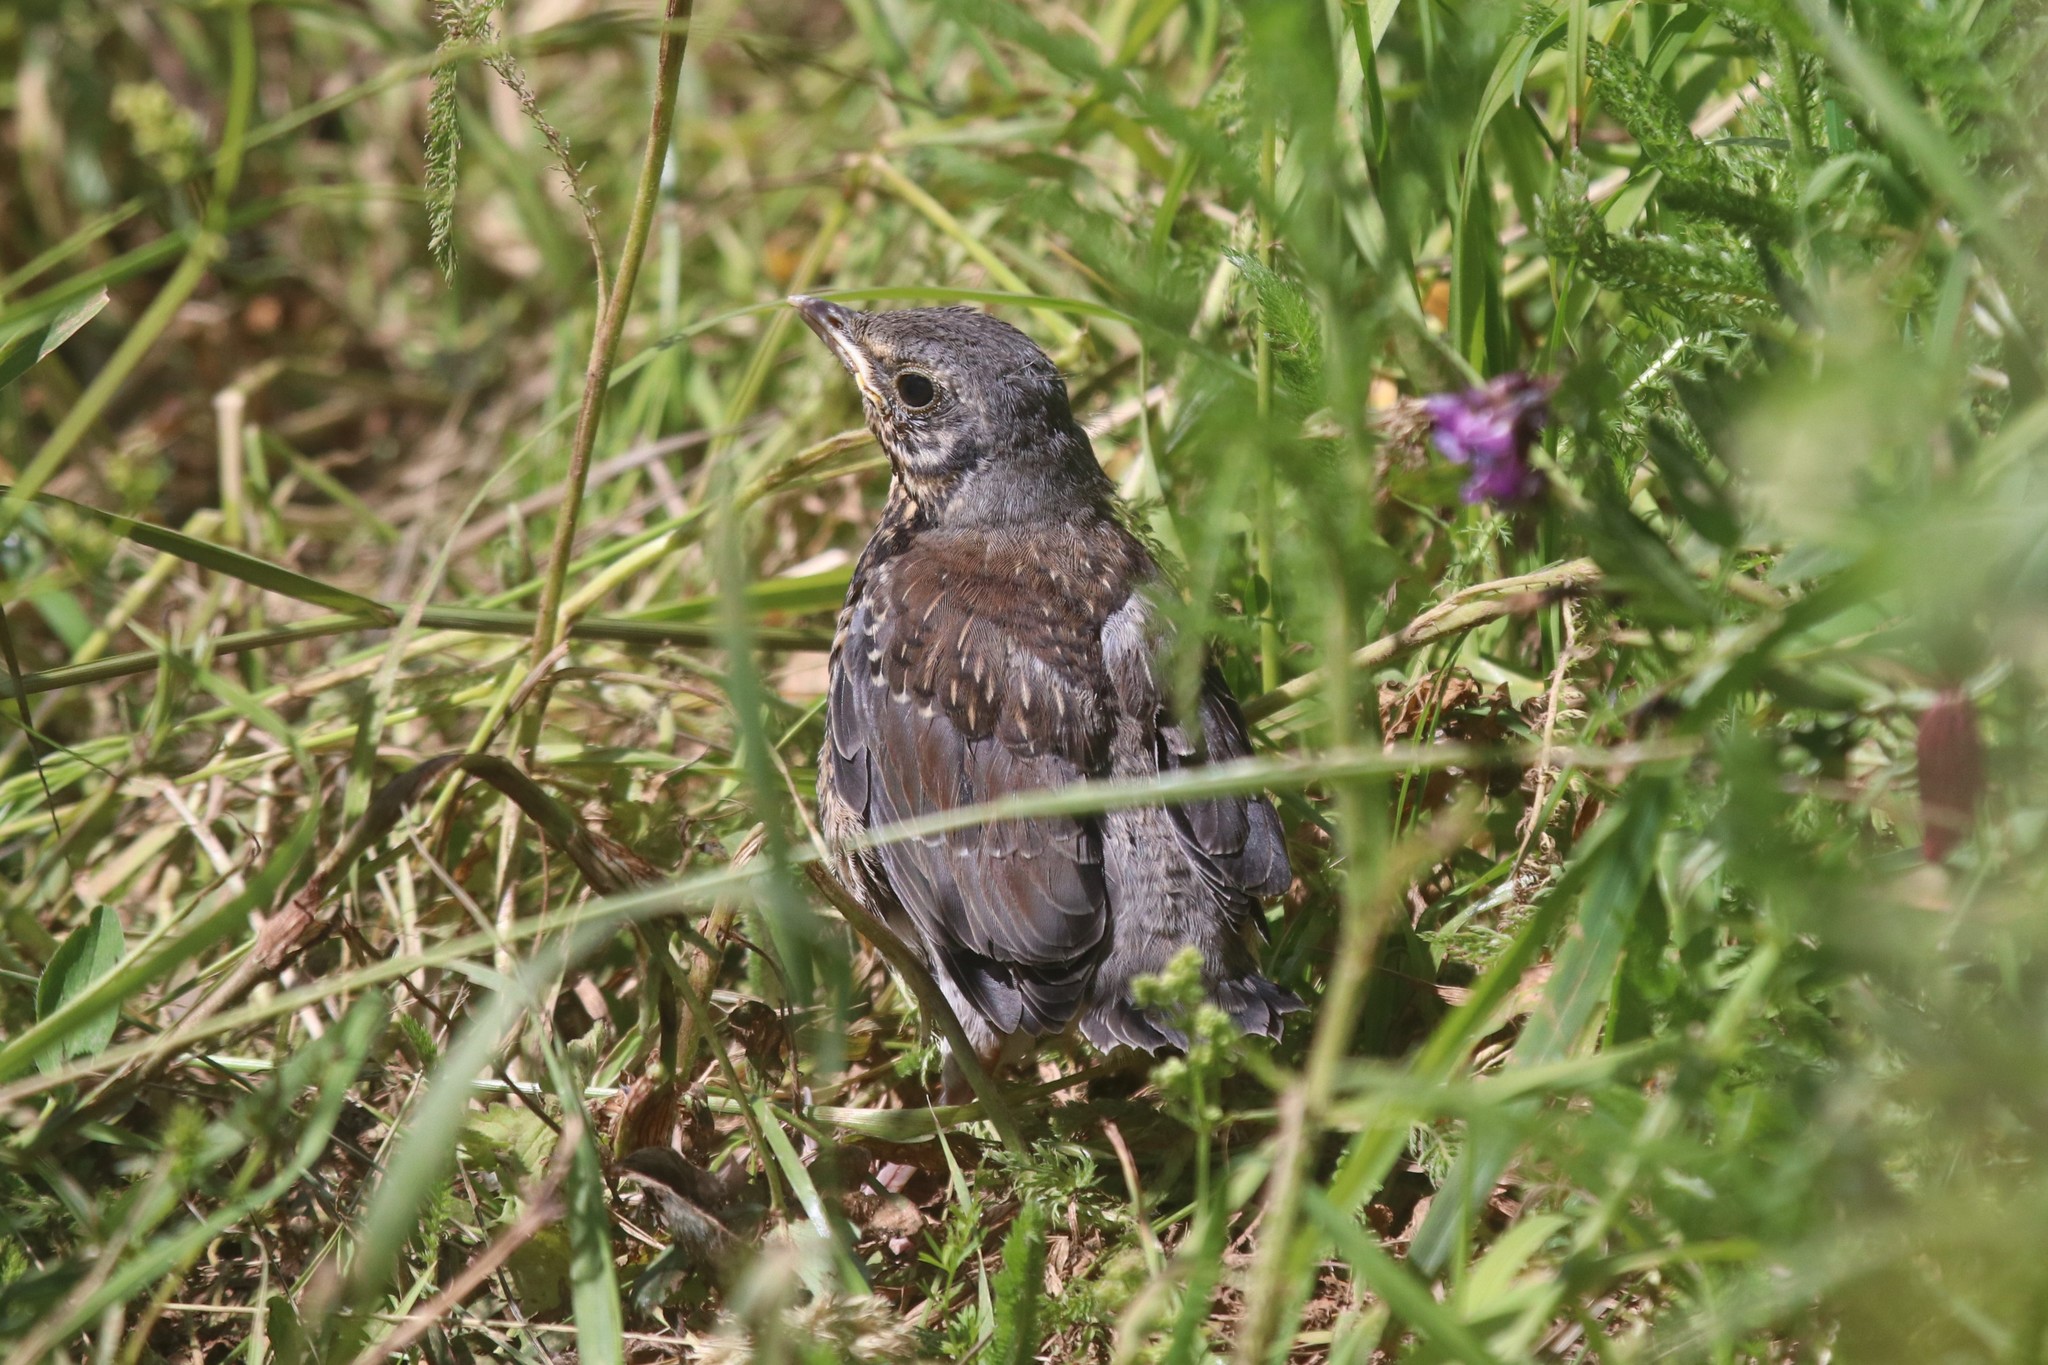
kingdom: Animalia
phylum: Chordata
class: Aves
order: Passeriformes
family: Turdidae
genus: Turdus
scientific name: Turdus pilaris
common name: Fieldfare
